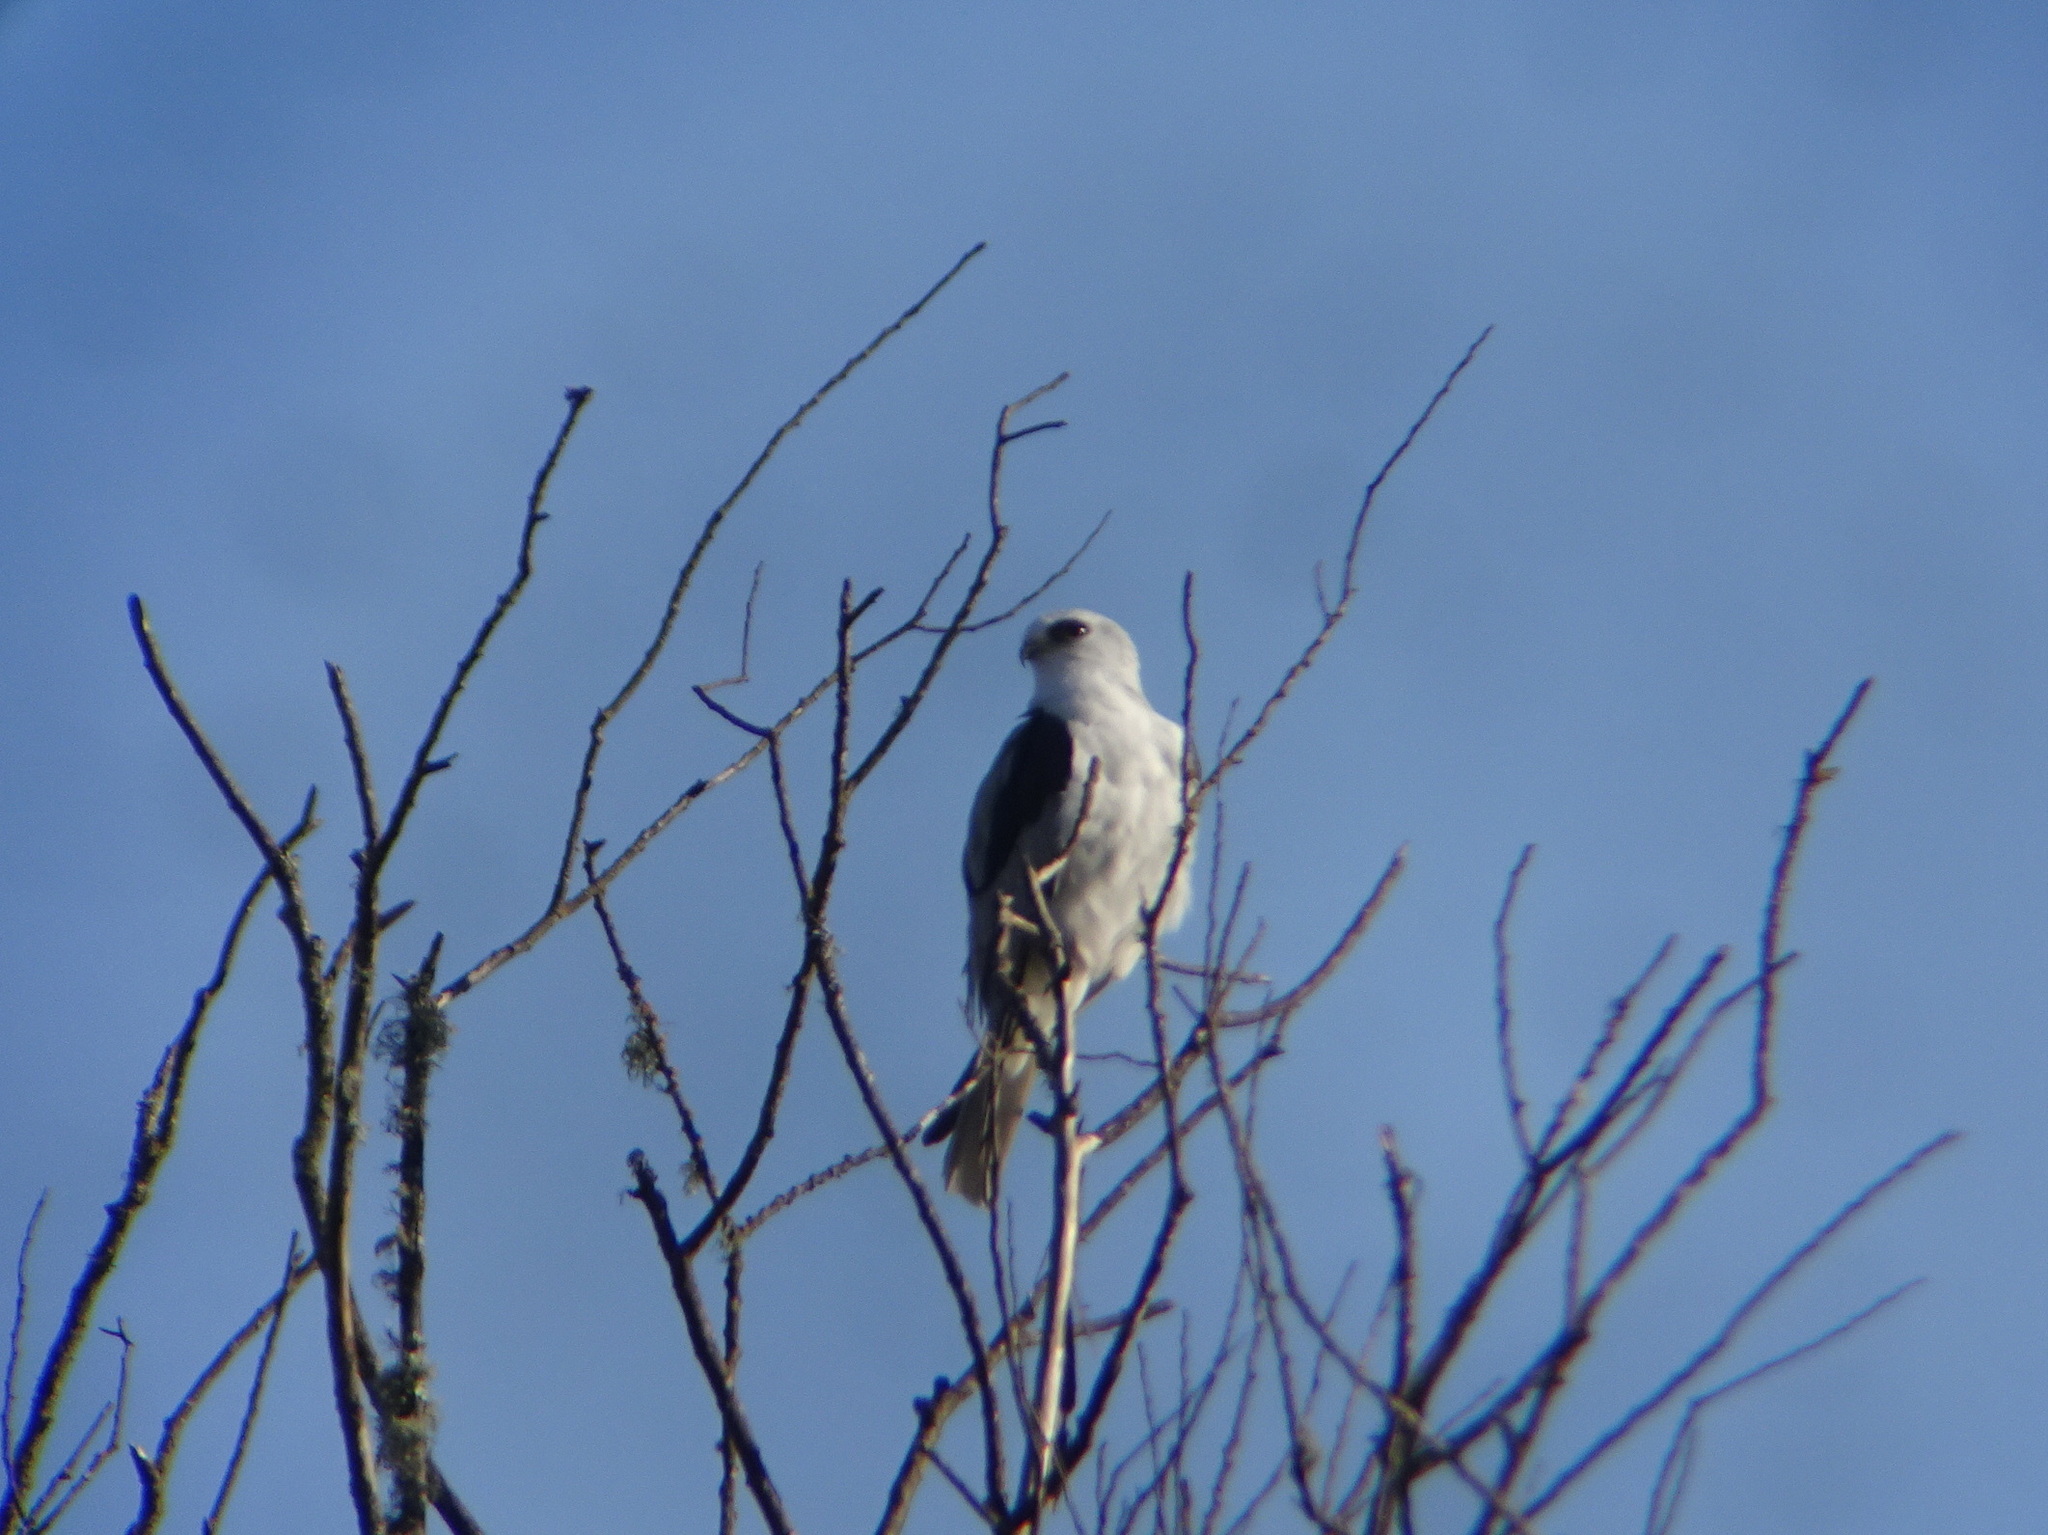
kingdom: Animalia
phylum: Chordata
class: Aves
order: Accipitriformes
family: Accipitridae
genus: Elanus
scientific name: Elanus leucurus
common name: White-tailed kite
